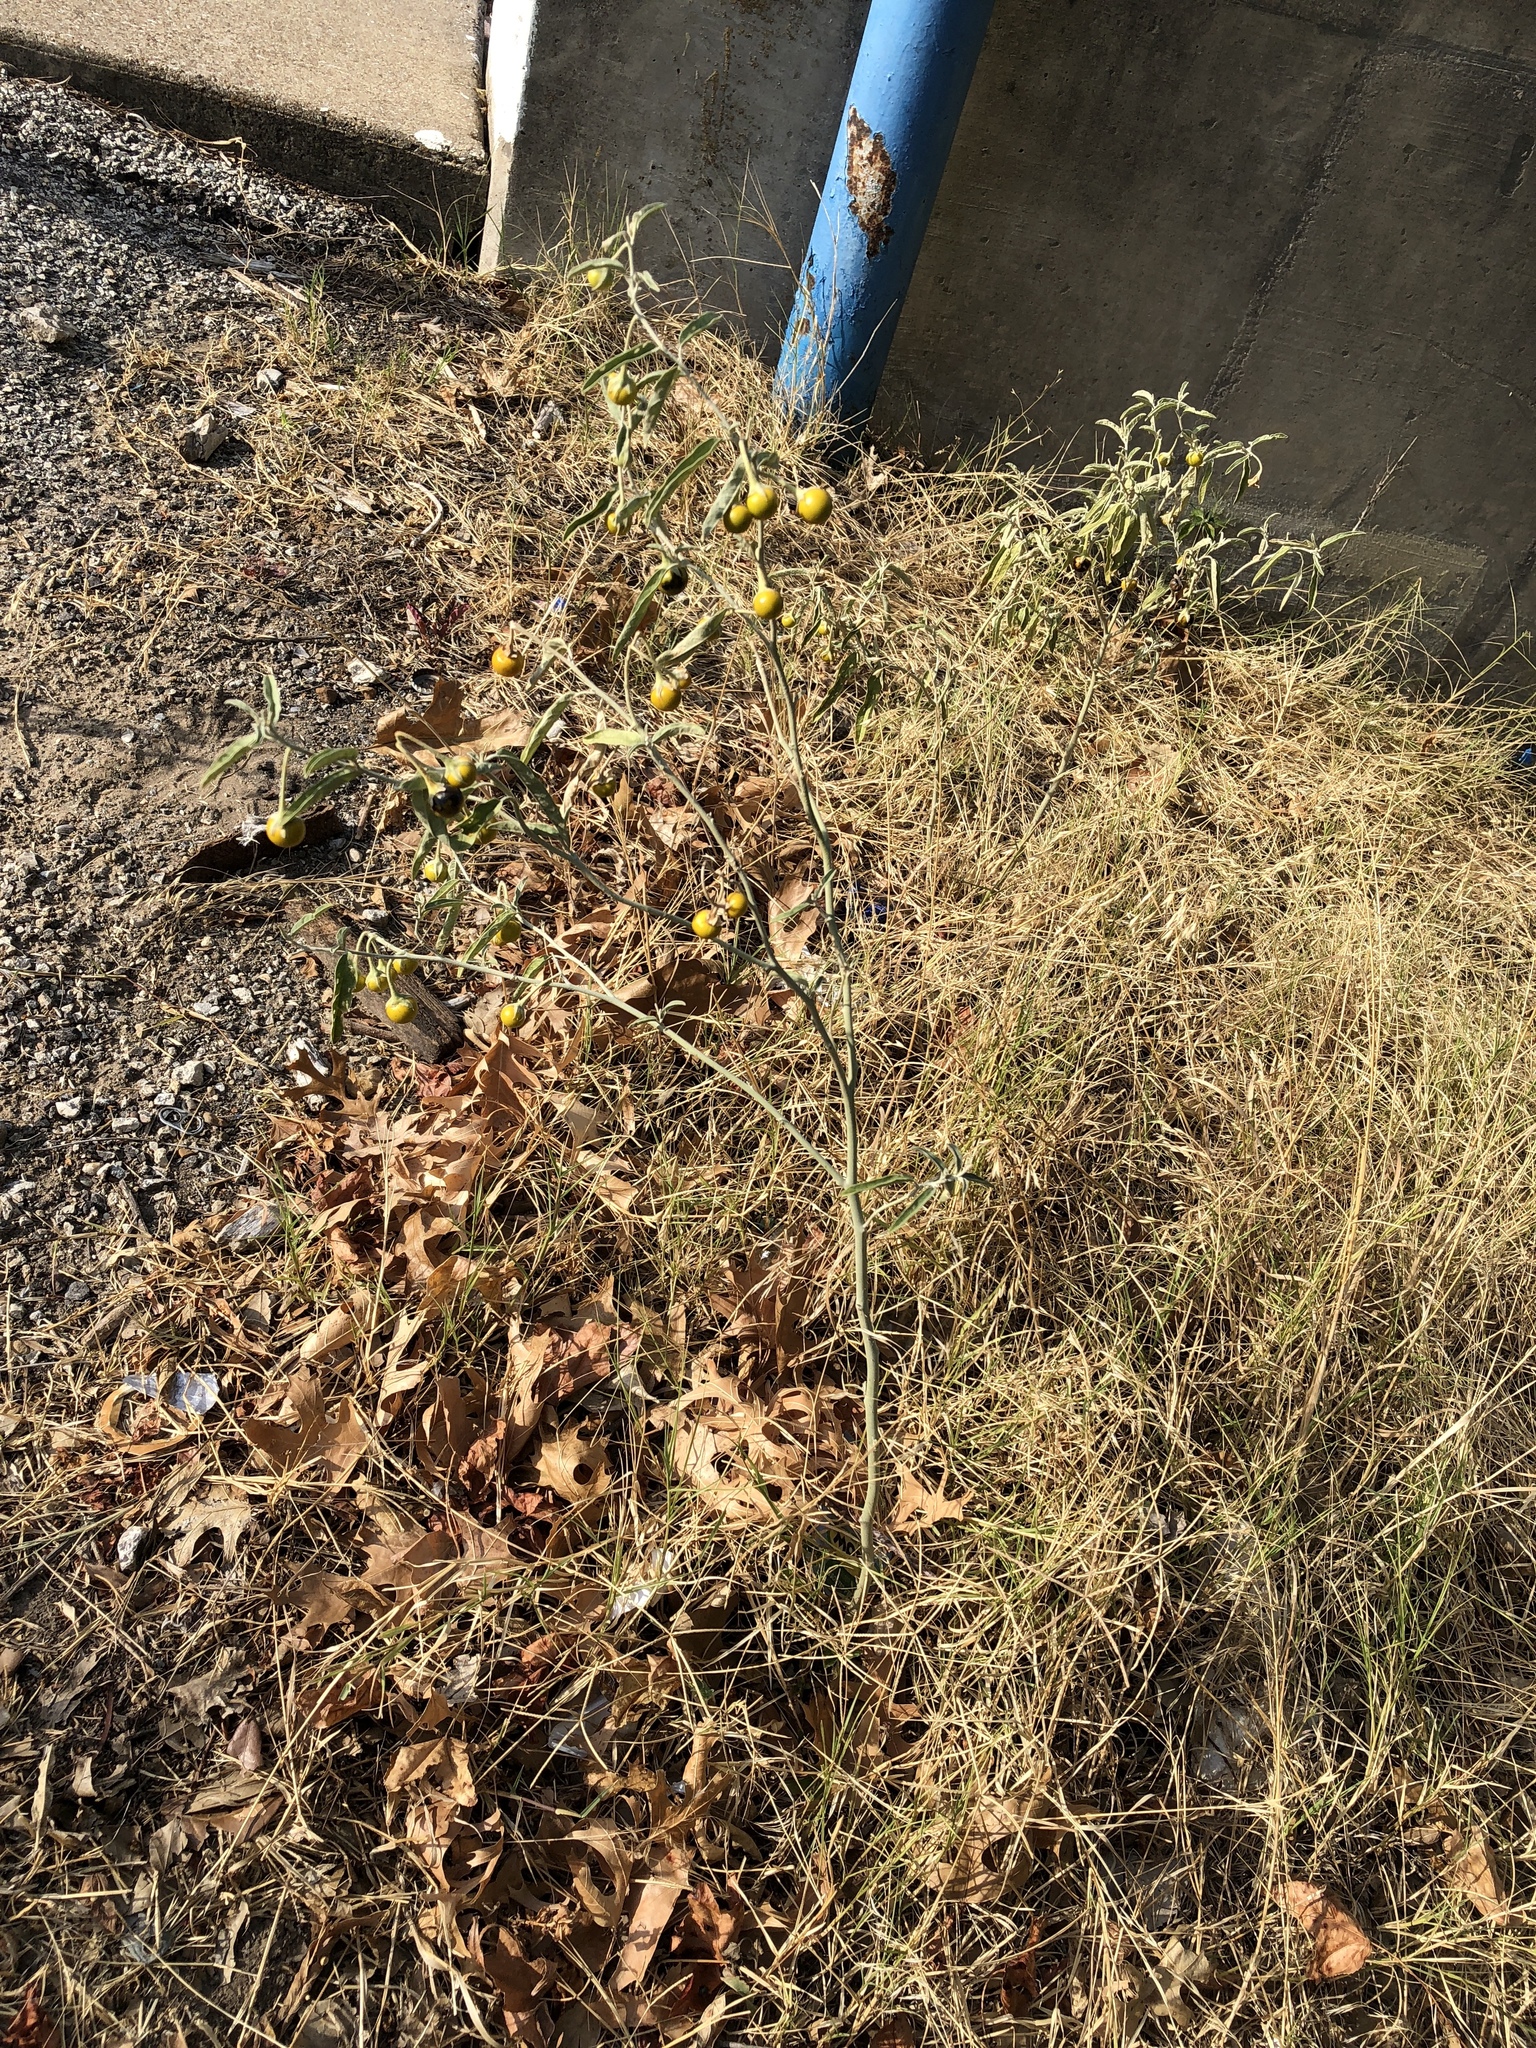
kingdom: Plantae
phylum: Tracheophyta
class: Magnoliopsida
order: Solanales
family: Solanaceae
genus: Solanum
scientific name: Solanum elaeagnifolium
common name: Silverleaf nightshade
